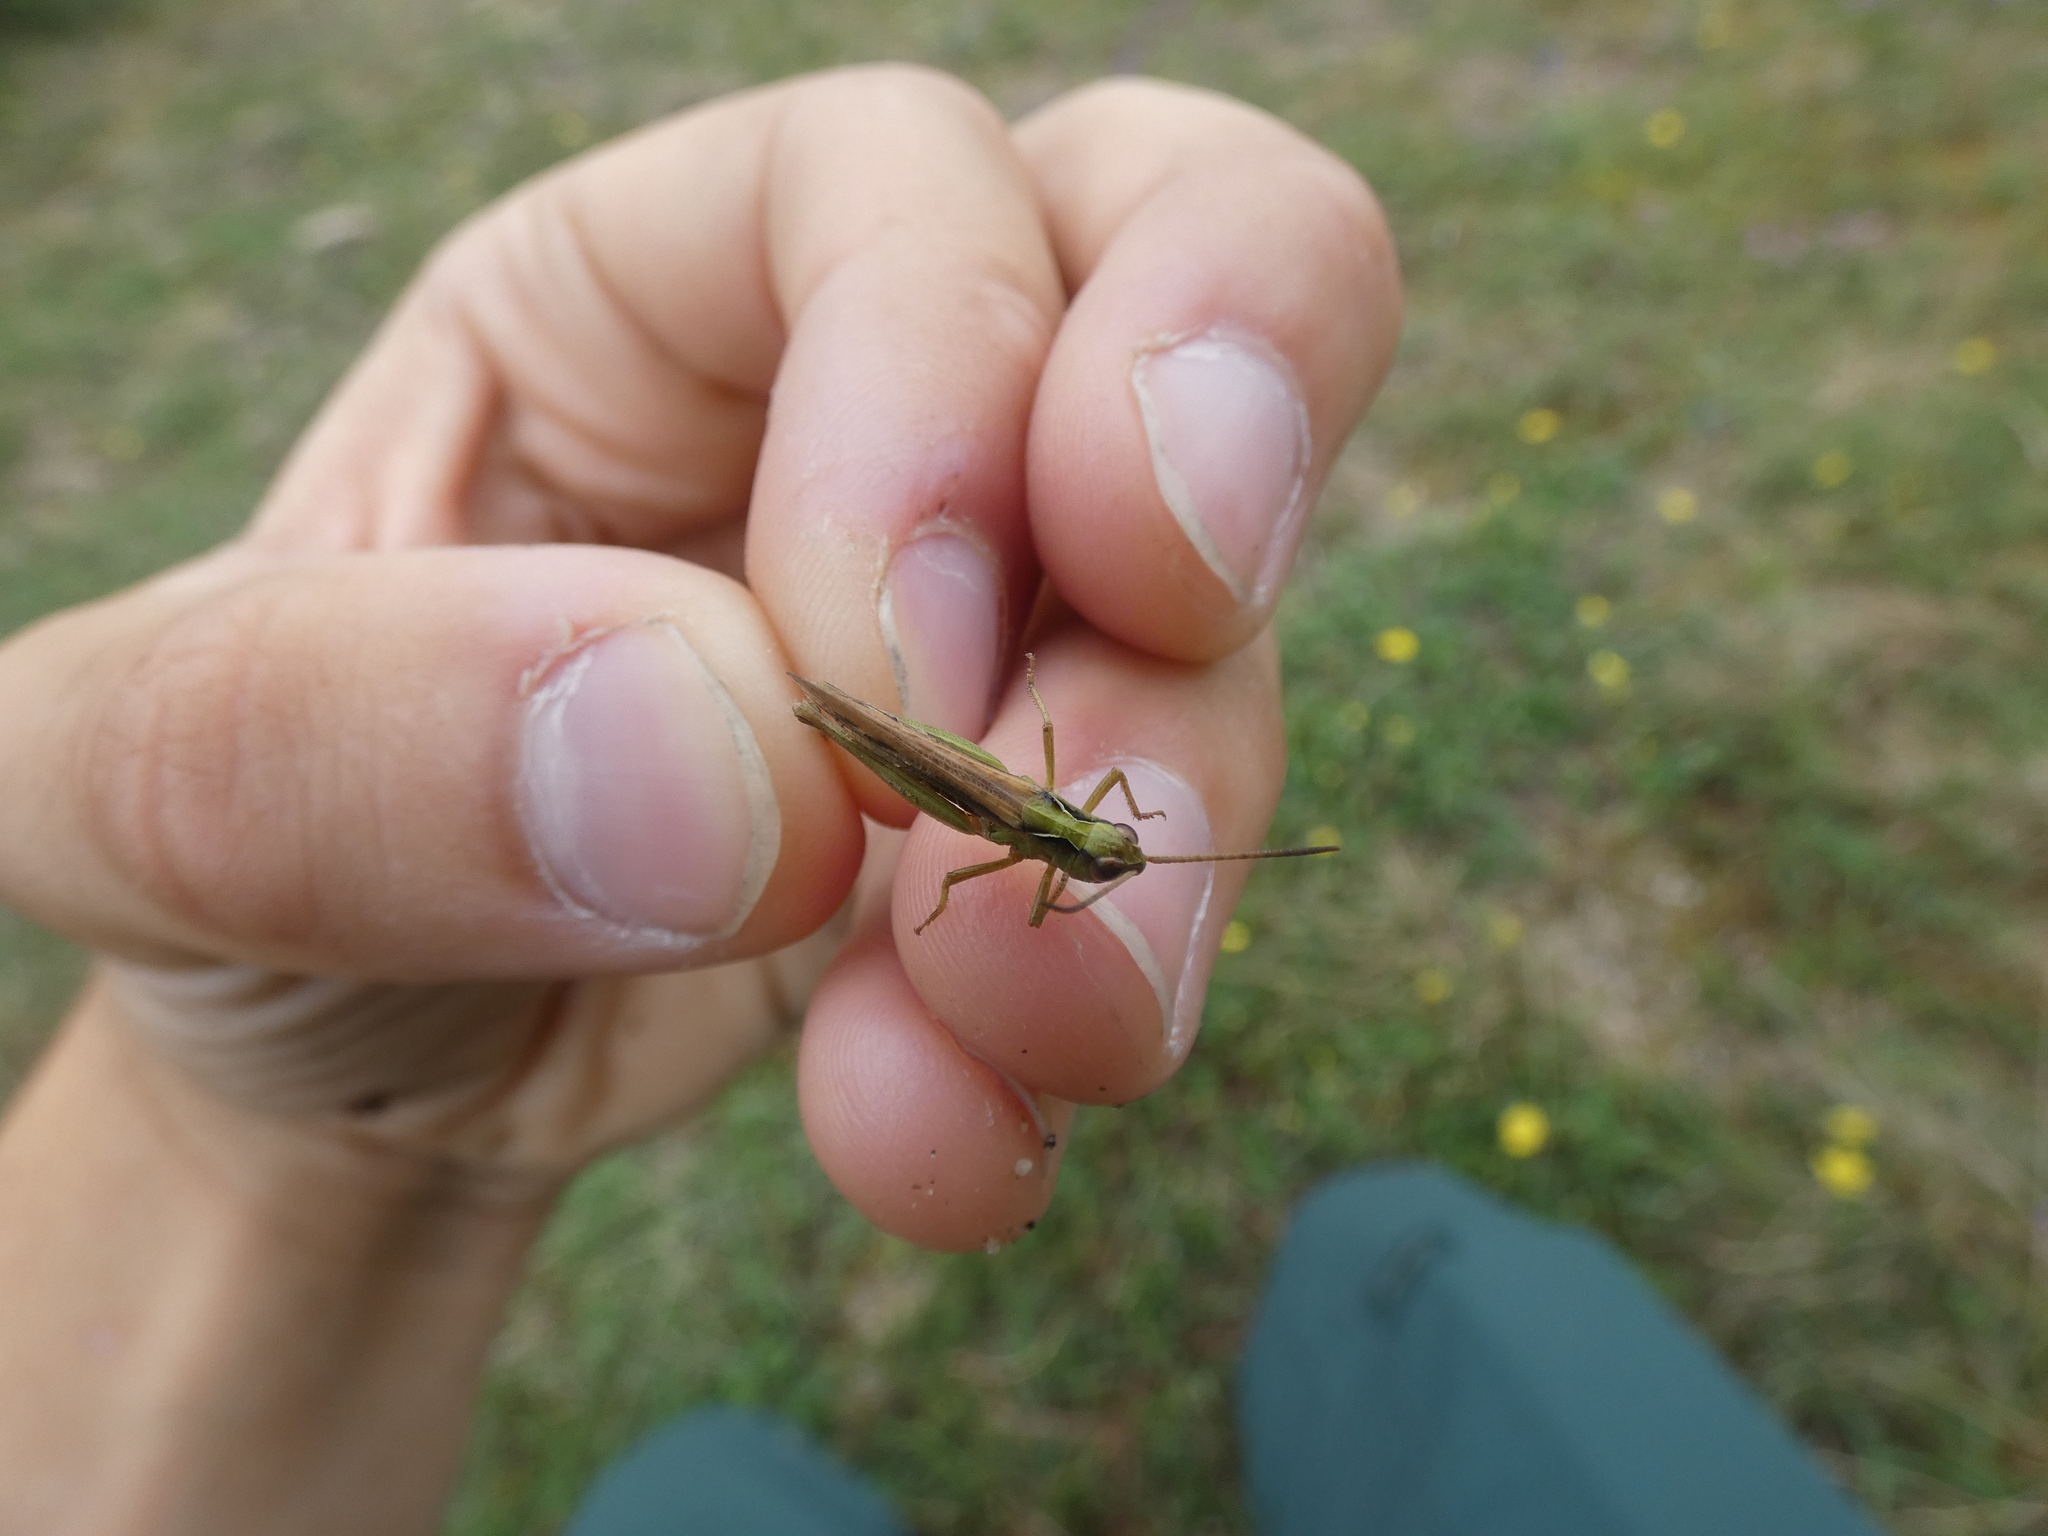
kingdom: Animalia
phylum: Arthropoda
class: Insecta
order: Orthoptera
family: Acrididae
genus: Chorthippus
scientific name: Chorthippus mollis
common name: Lesser field grasshopper
